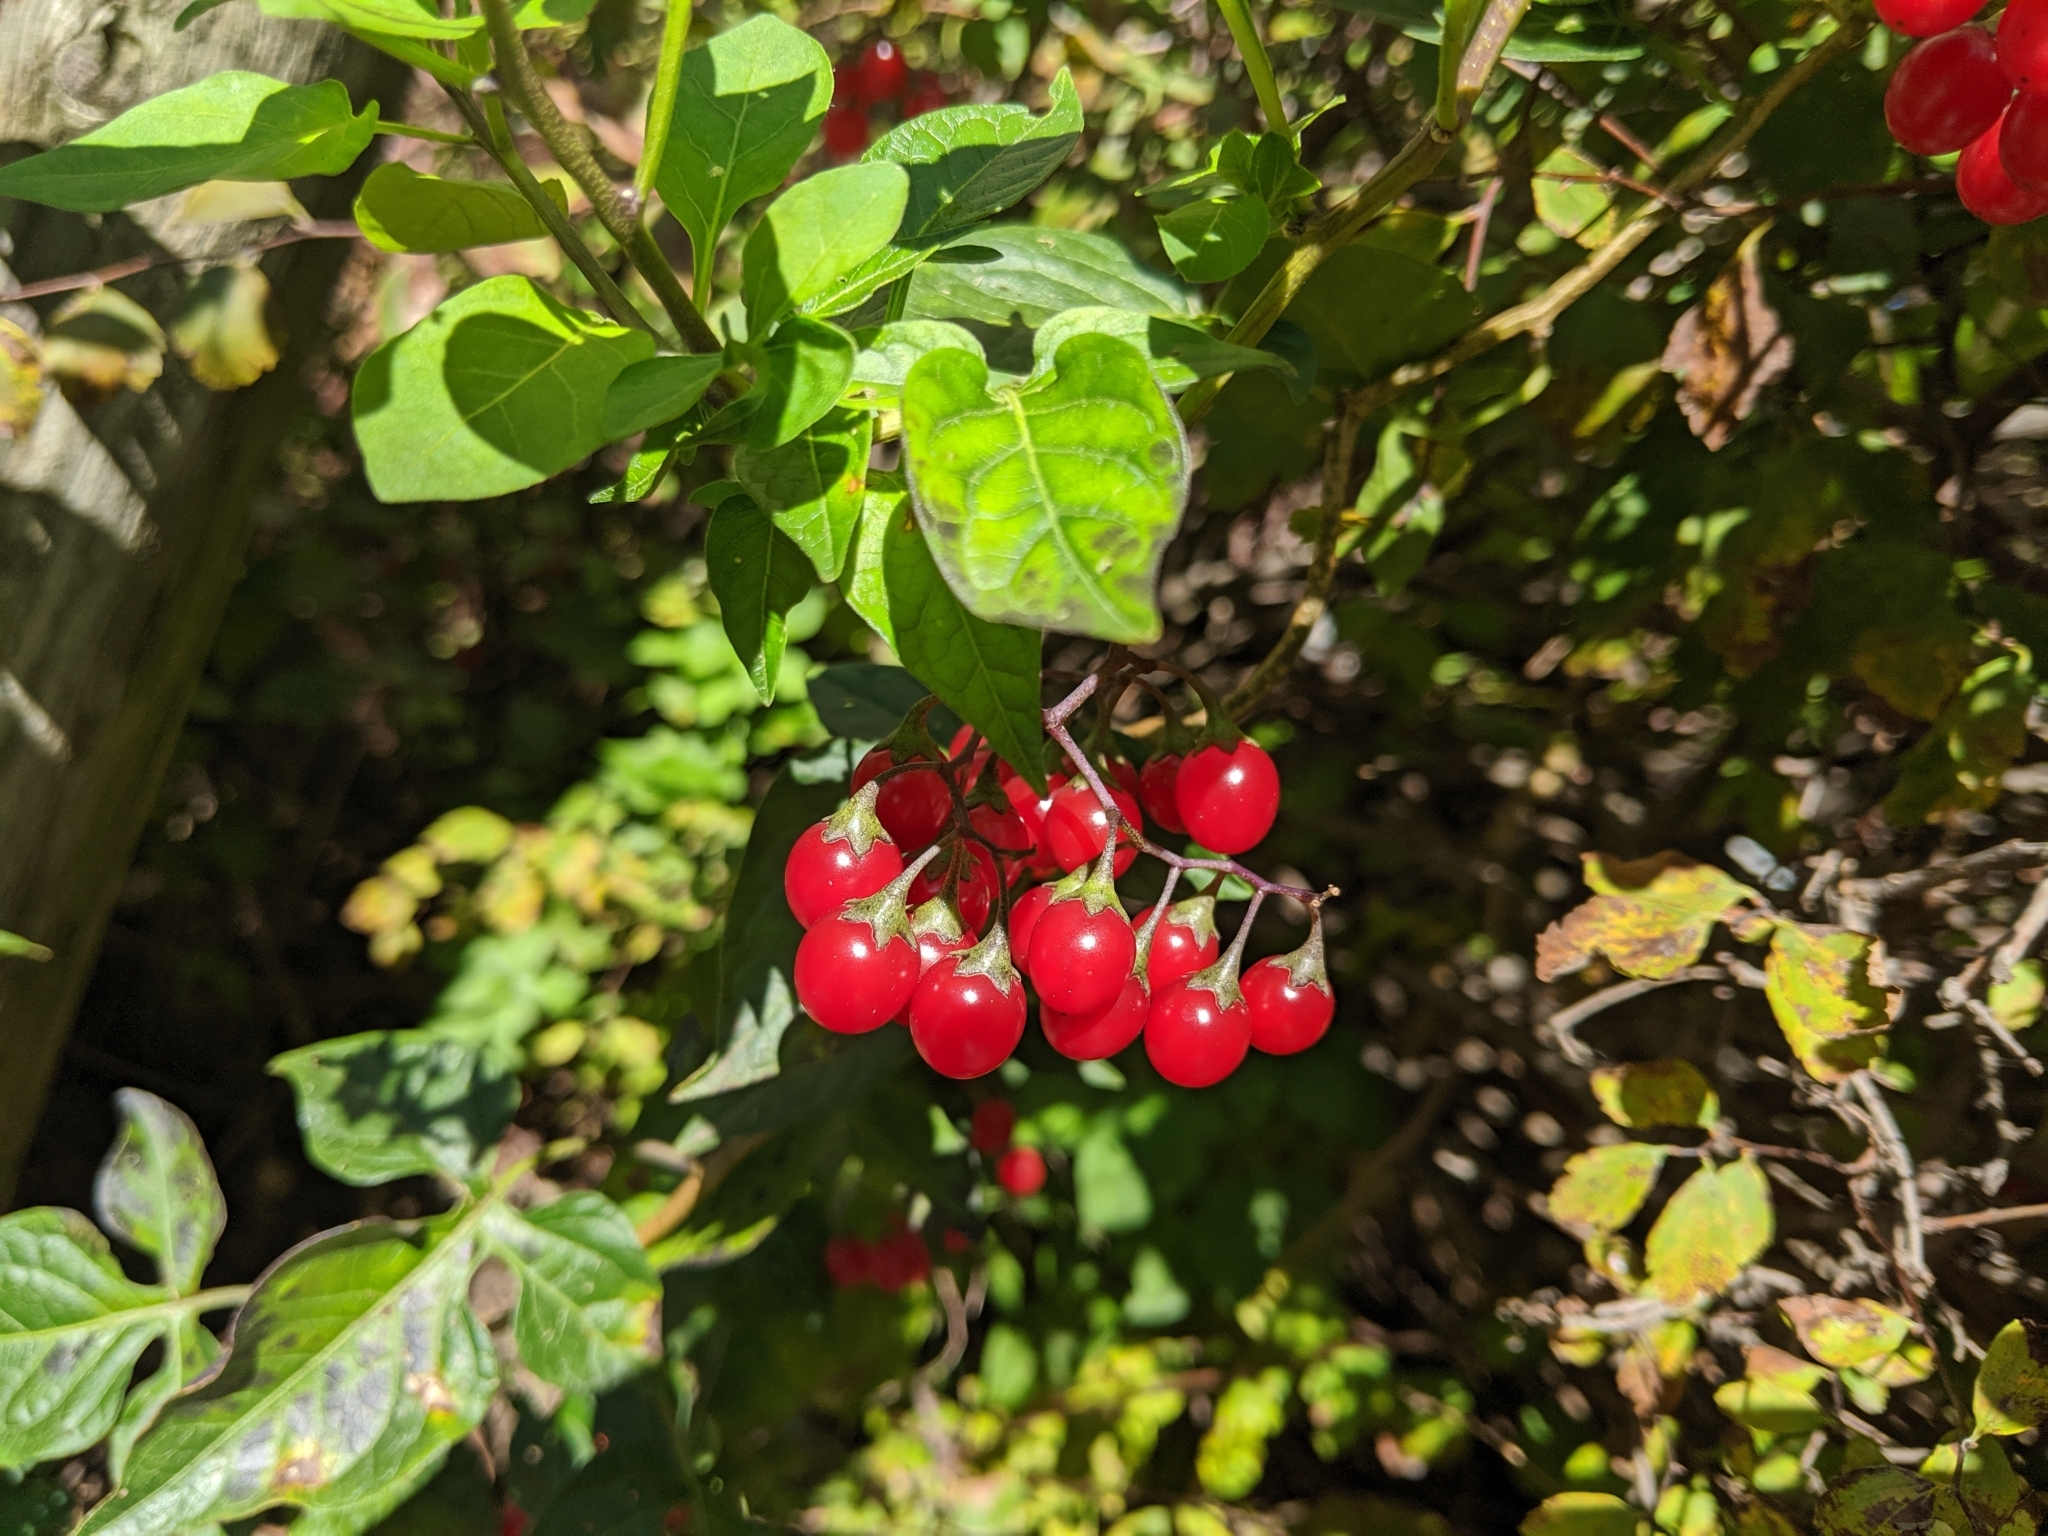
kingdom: Plantae
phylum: Tracheophyta
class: Magnoliopsida
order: Solanales
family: Solanaceae
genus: Solanum
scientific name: Solanum dulcamara
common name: Climbing nightshade
